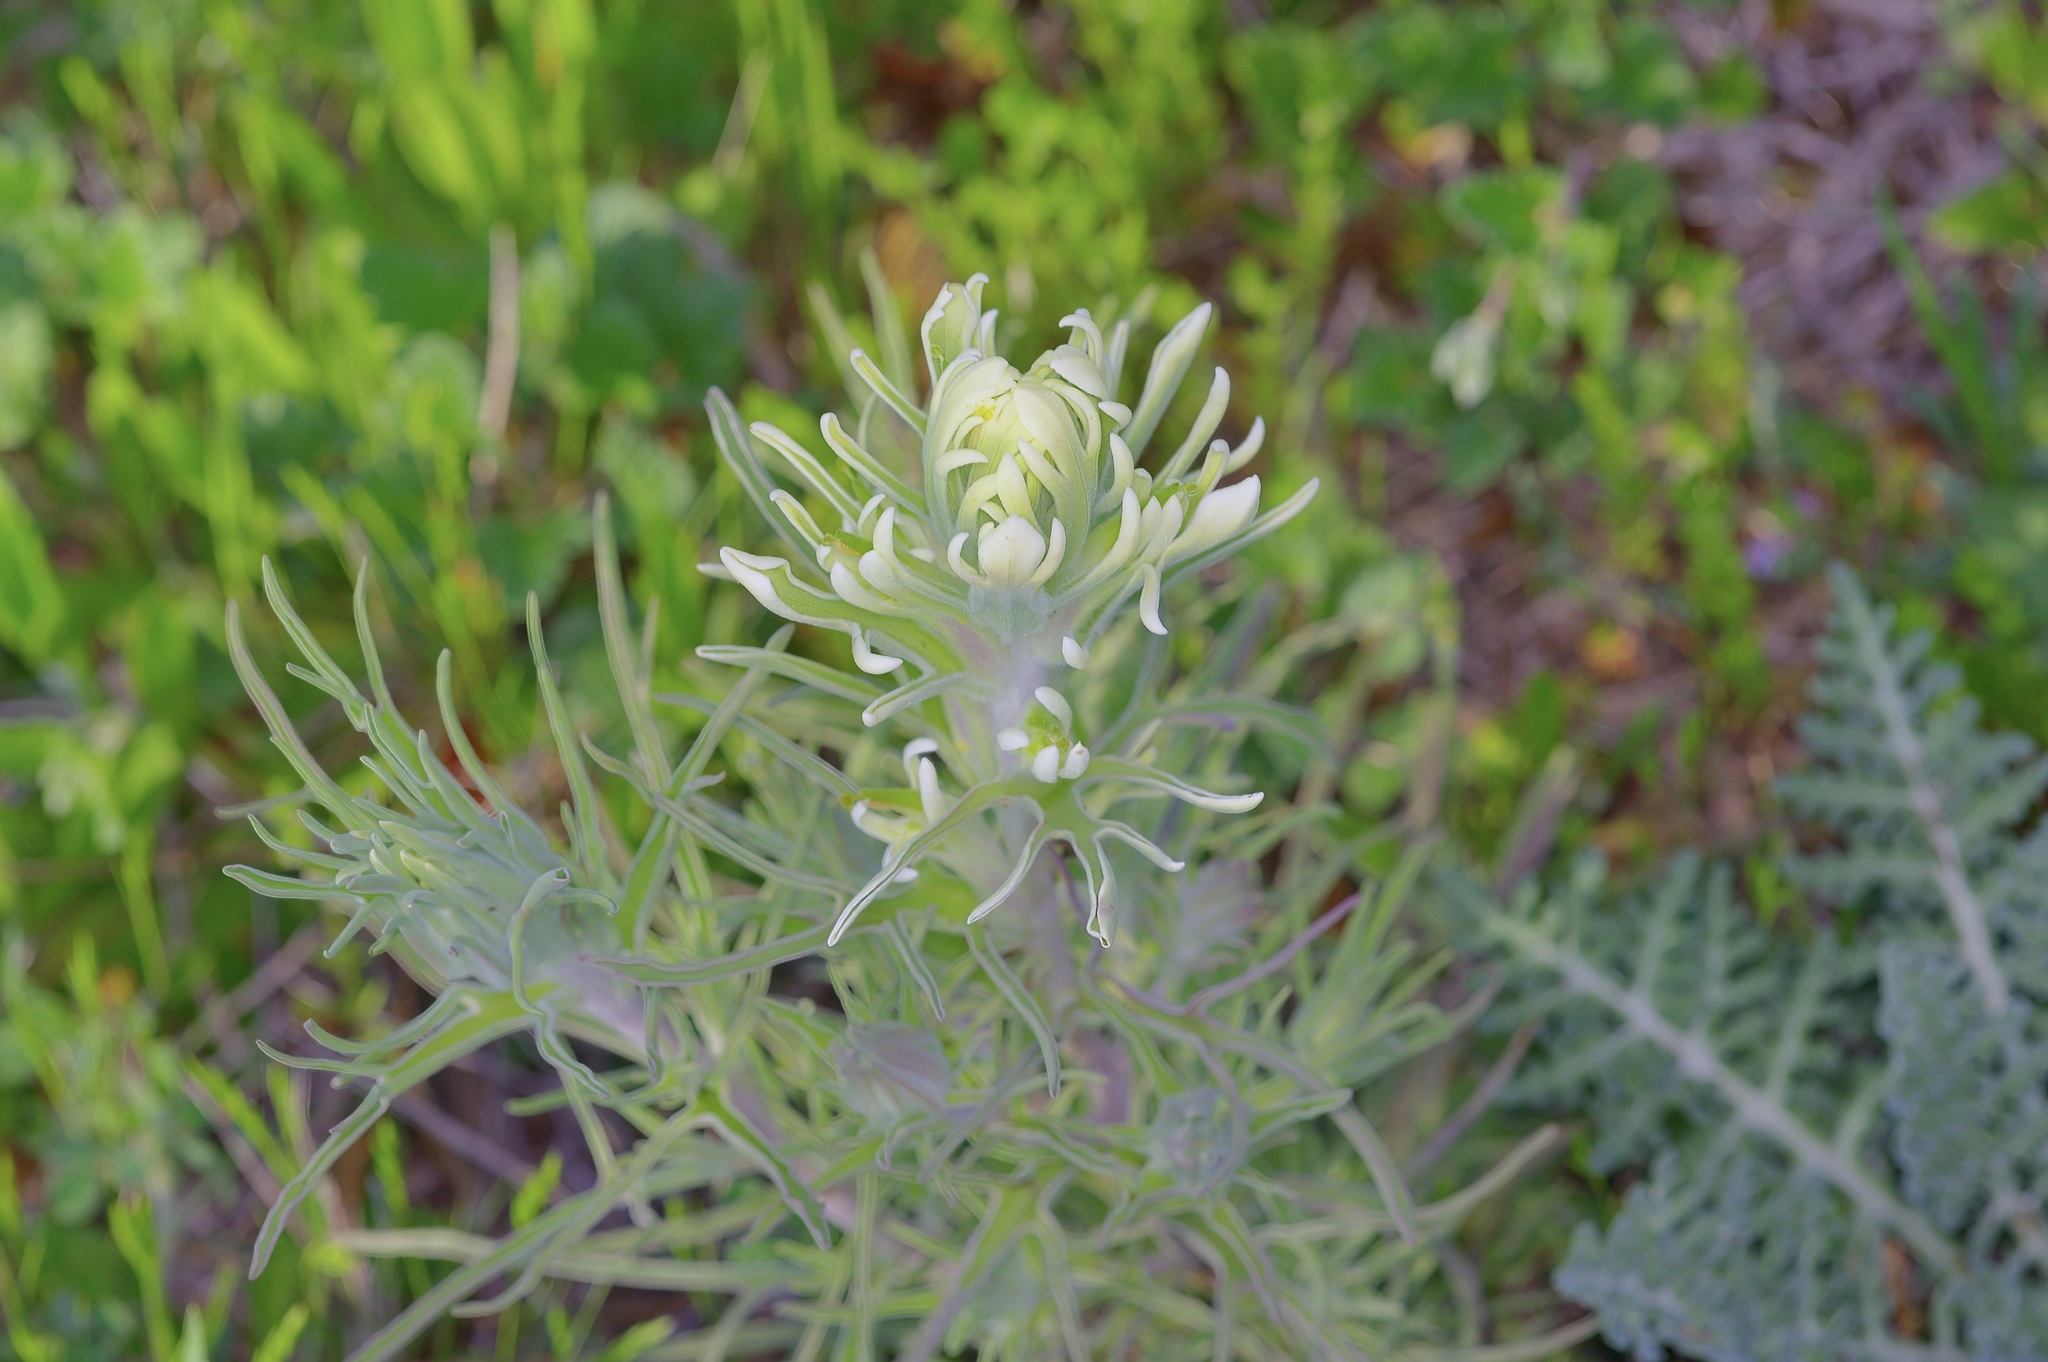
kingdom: Plantae
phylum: Tracheophyta
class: Magnoliopsida
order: Lamiales
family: Orobanchaceae
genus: Castilleja
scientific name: Castilleja citrina
